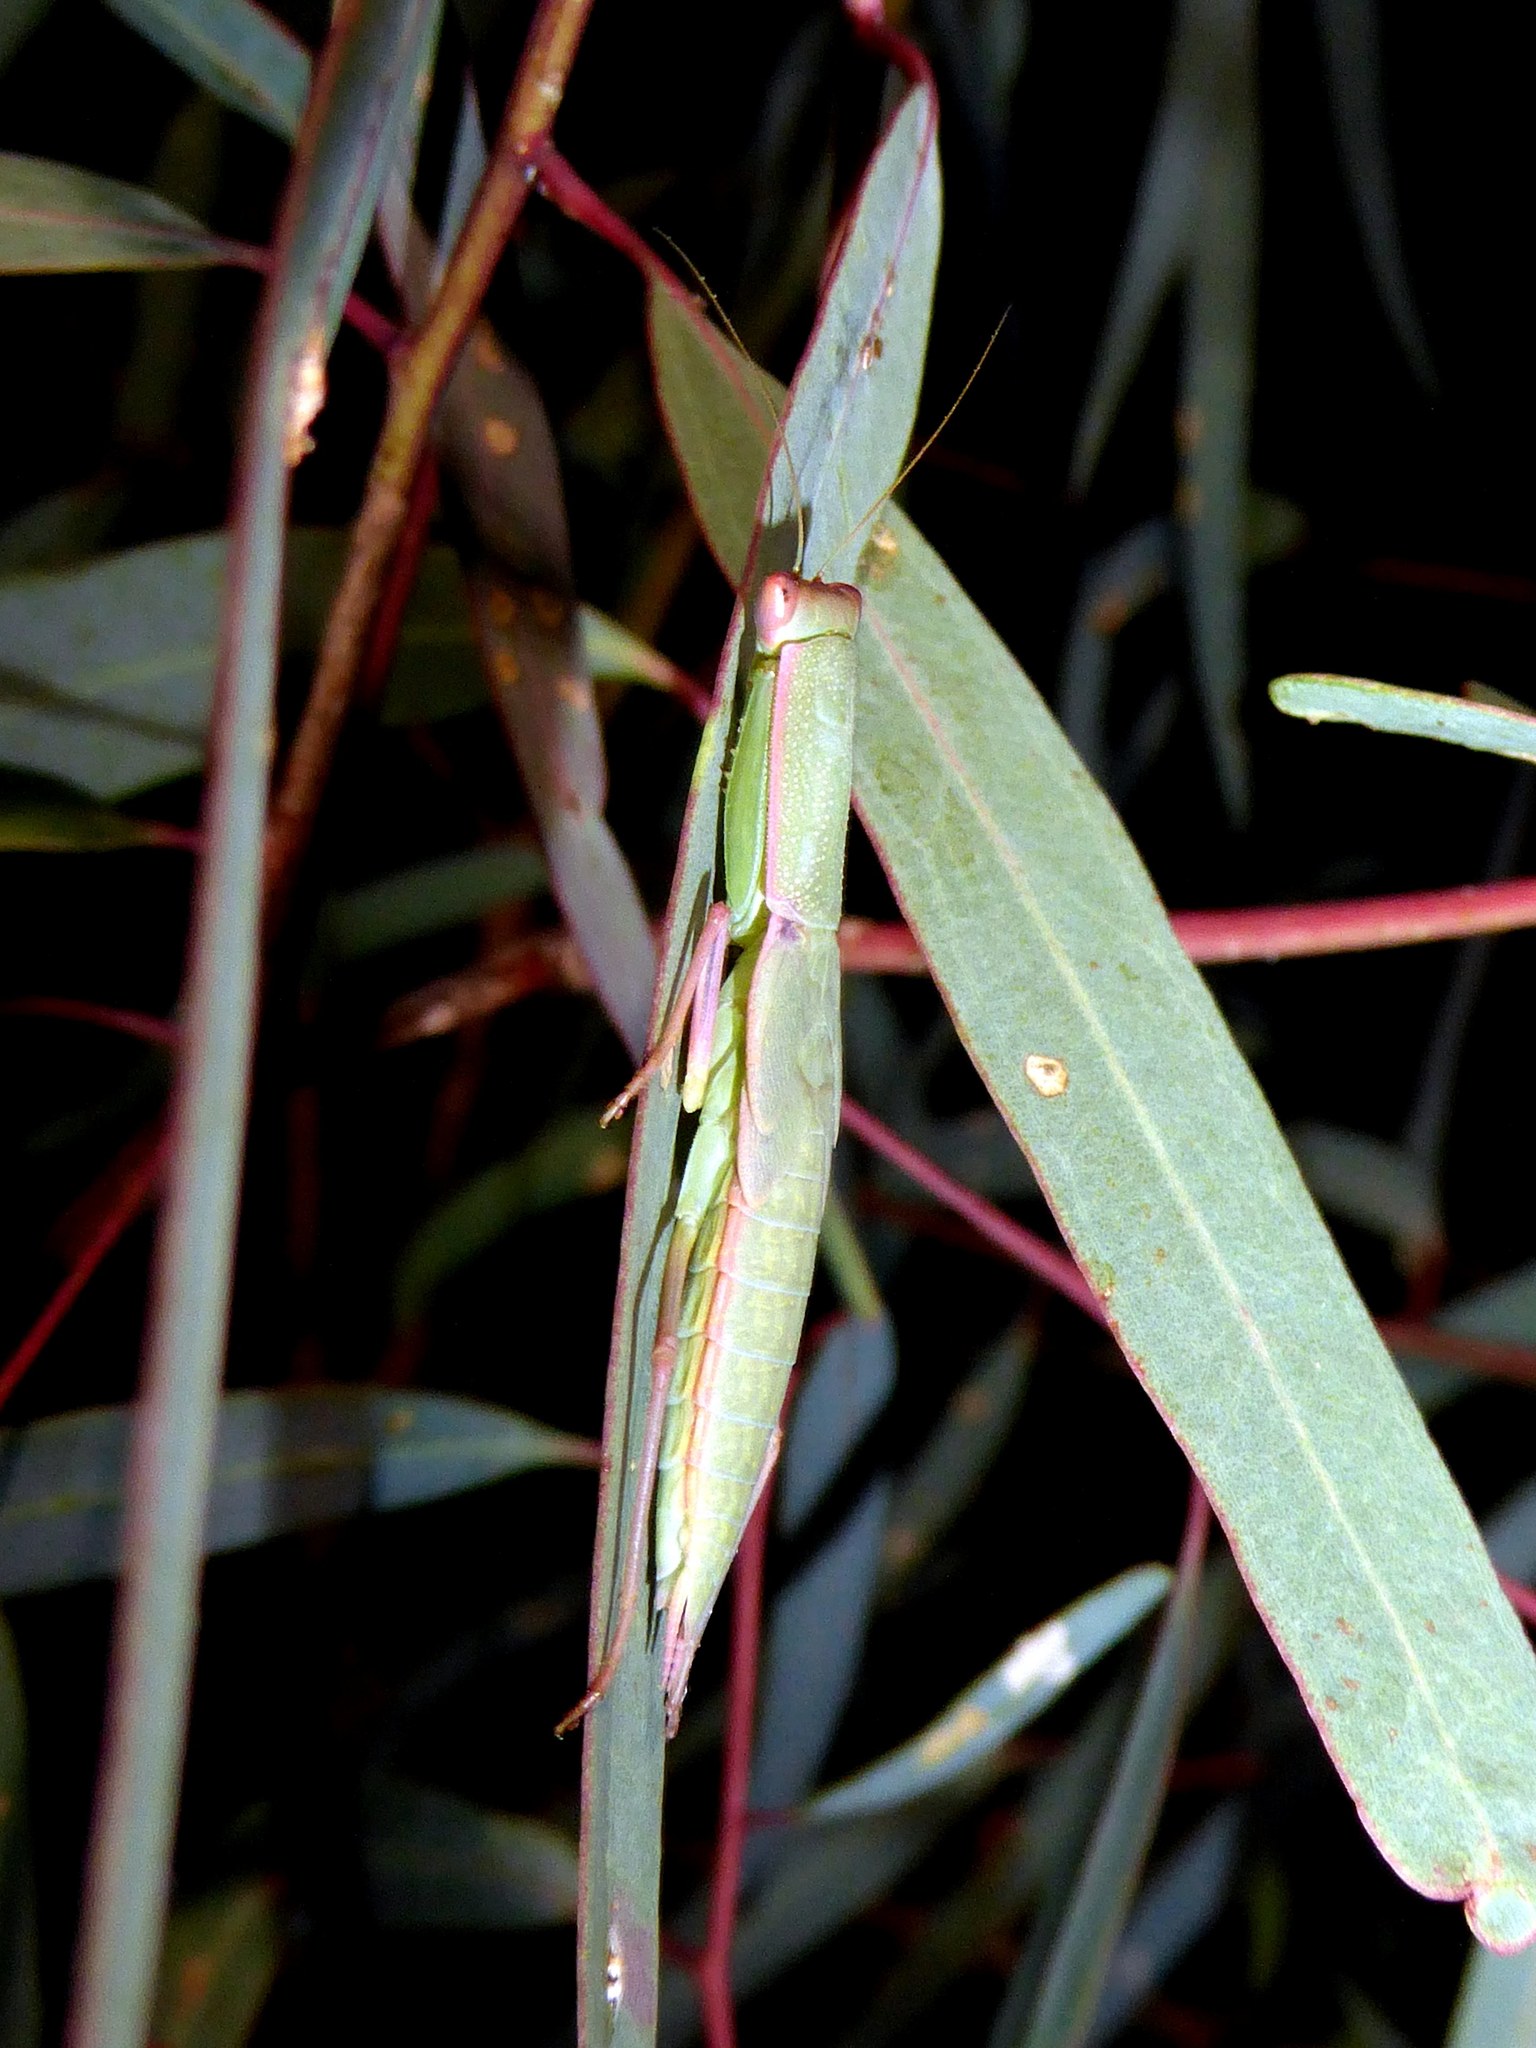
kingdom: Animalia
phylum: Arthropoda
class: Insecta
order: Mantodea
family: Mantidae
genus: Orthodera
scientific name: Orthodera ministralis
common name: Mantis
